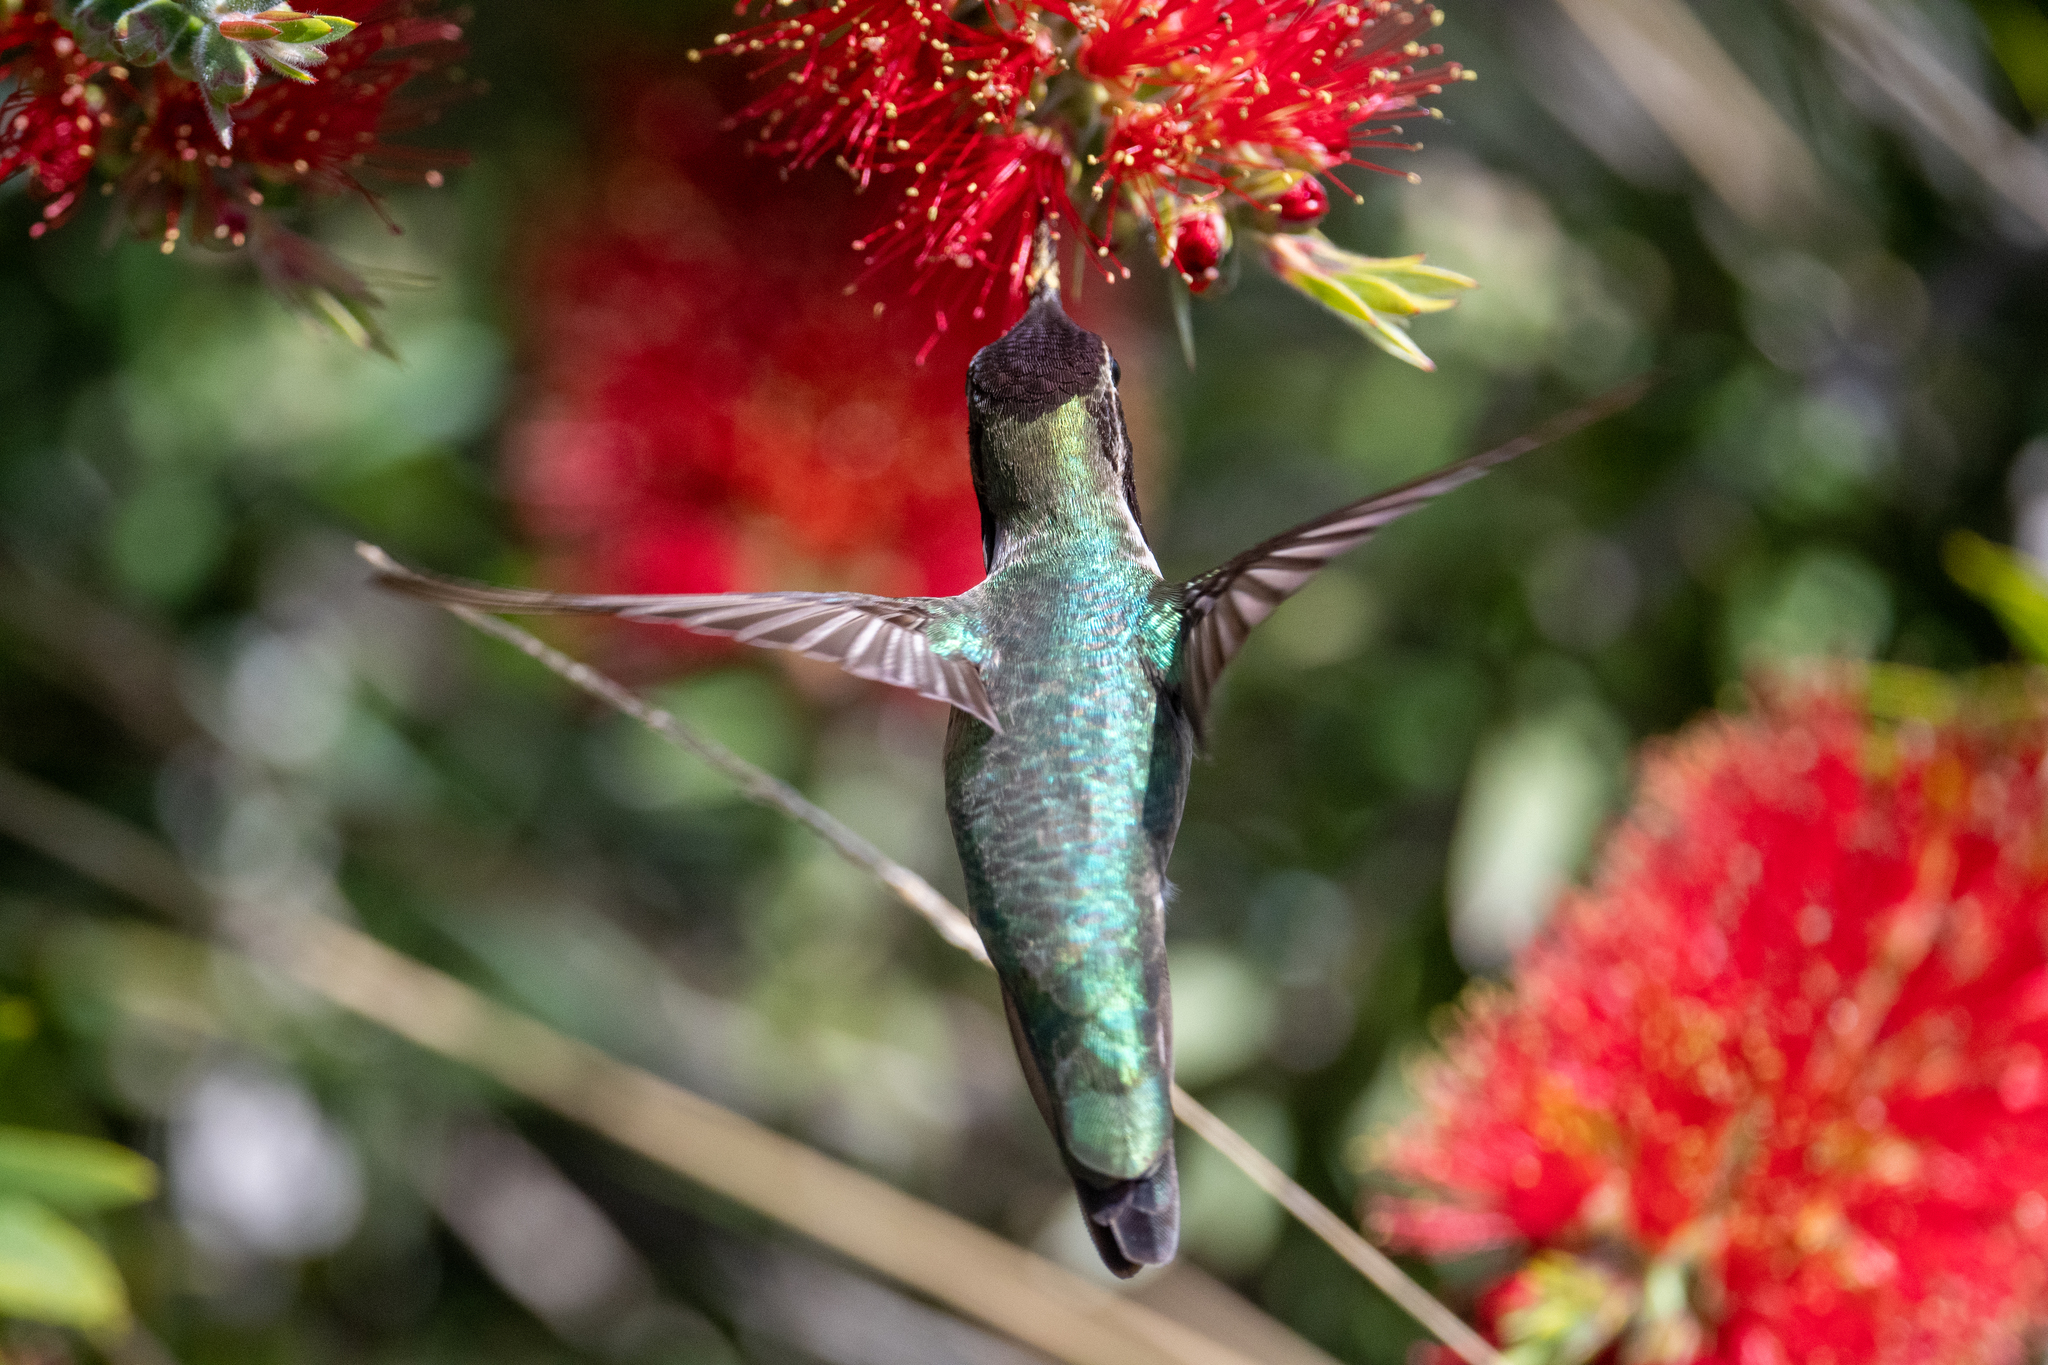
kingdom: Animalia
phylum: Chordata
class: Aves
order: Apodiformes
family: Trochilidae
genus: Calypte
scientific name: Calypte anna
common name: Anna's hummingbird
